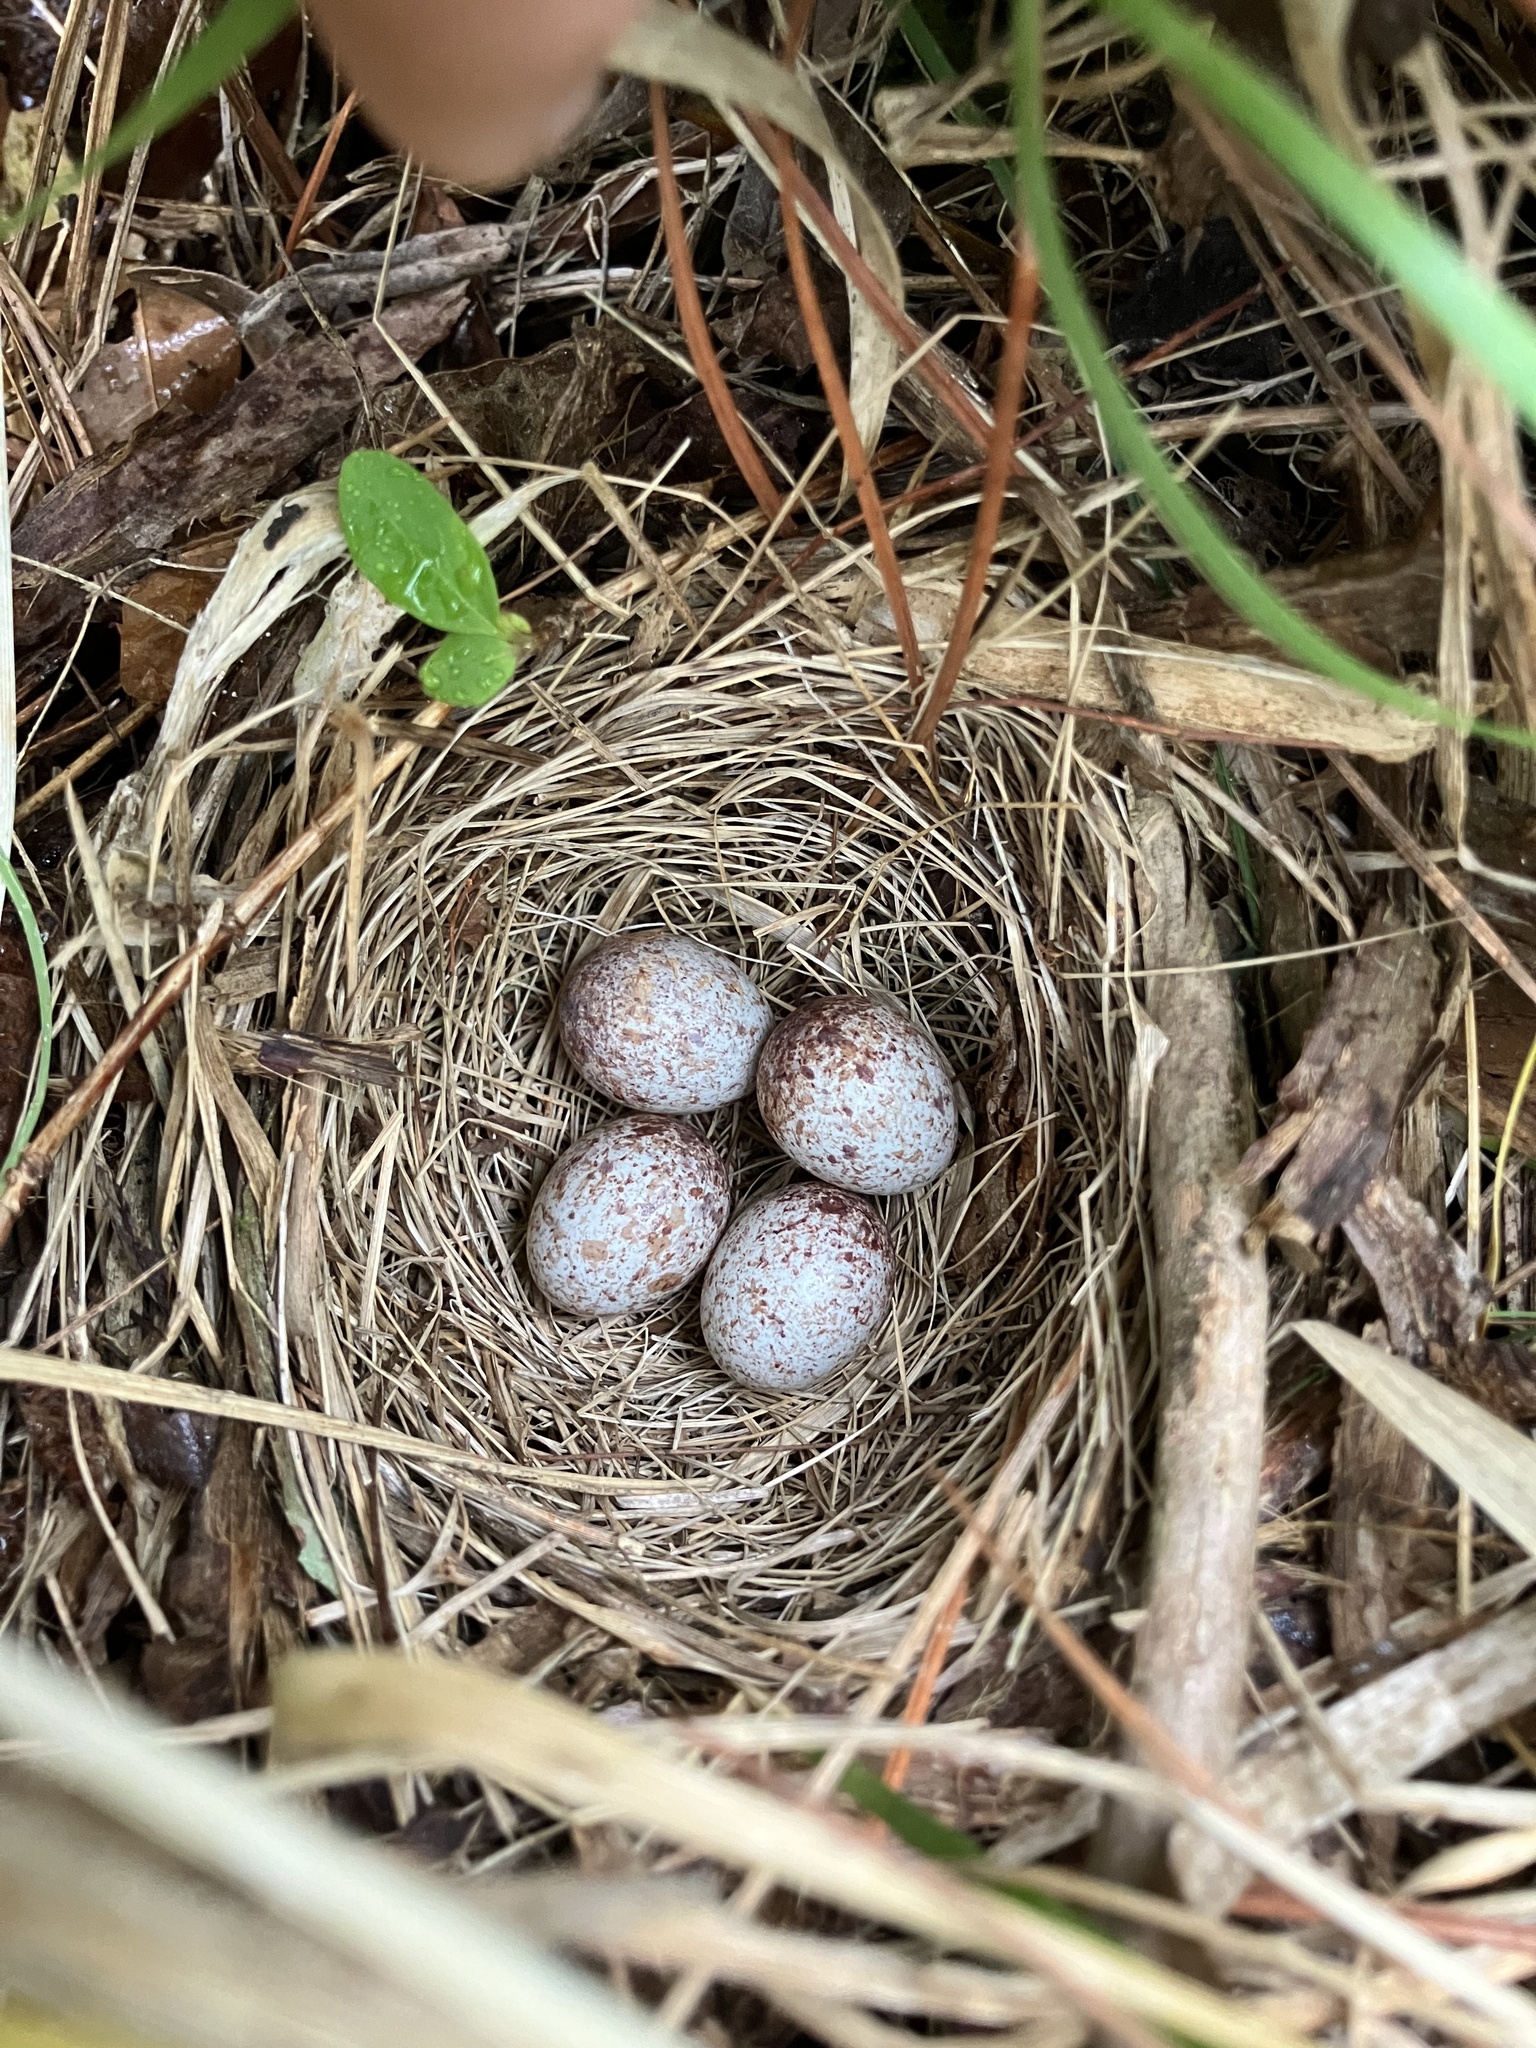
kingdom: Animalia
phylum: Chordata
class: Aves
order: Passeriformes
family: Passerellidae
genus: Melospiza
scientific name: Melospiza melodia
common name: Song sparrow
